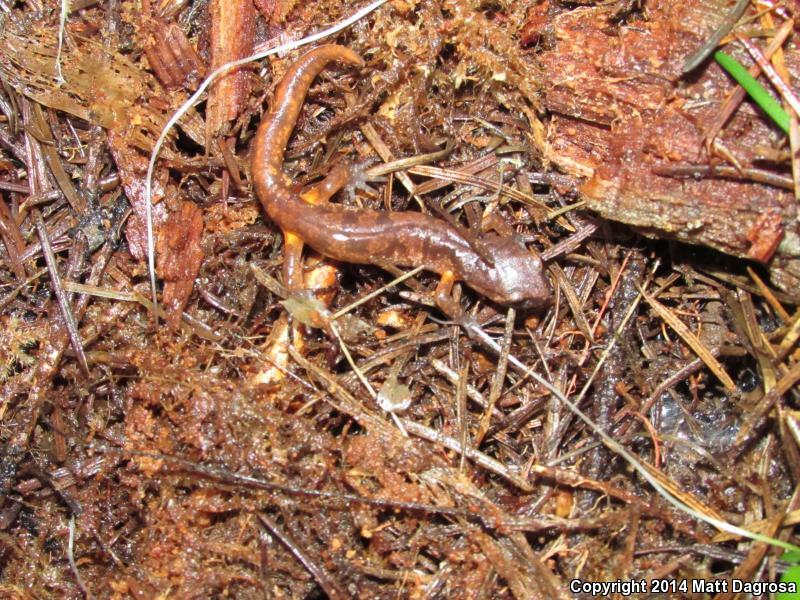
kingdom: Animalia
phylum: Chordata
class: Amphibia
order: Caudata
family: Plethodontidae
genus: Ensatina
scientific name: Ensatina eschscholtzii
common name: Ensatina
